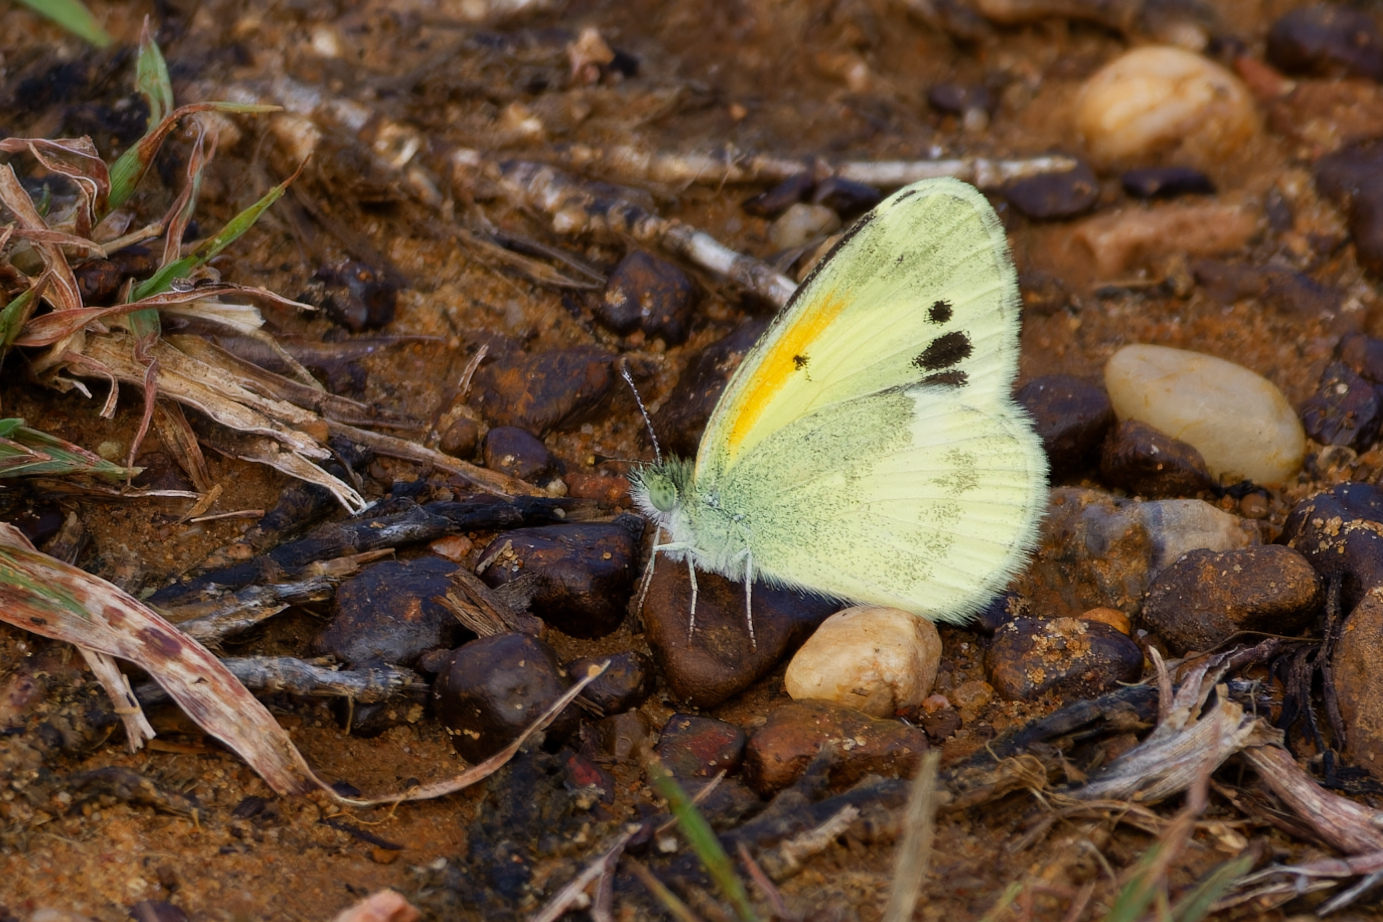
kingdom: Animalia
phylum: Arthropoda
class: Insecta
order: Lepidoptera
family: Pieridae
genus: Nathalis
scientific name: Nathalis iole
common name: Dainty sulphur
